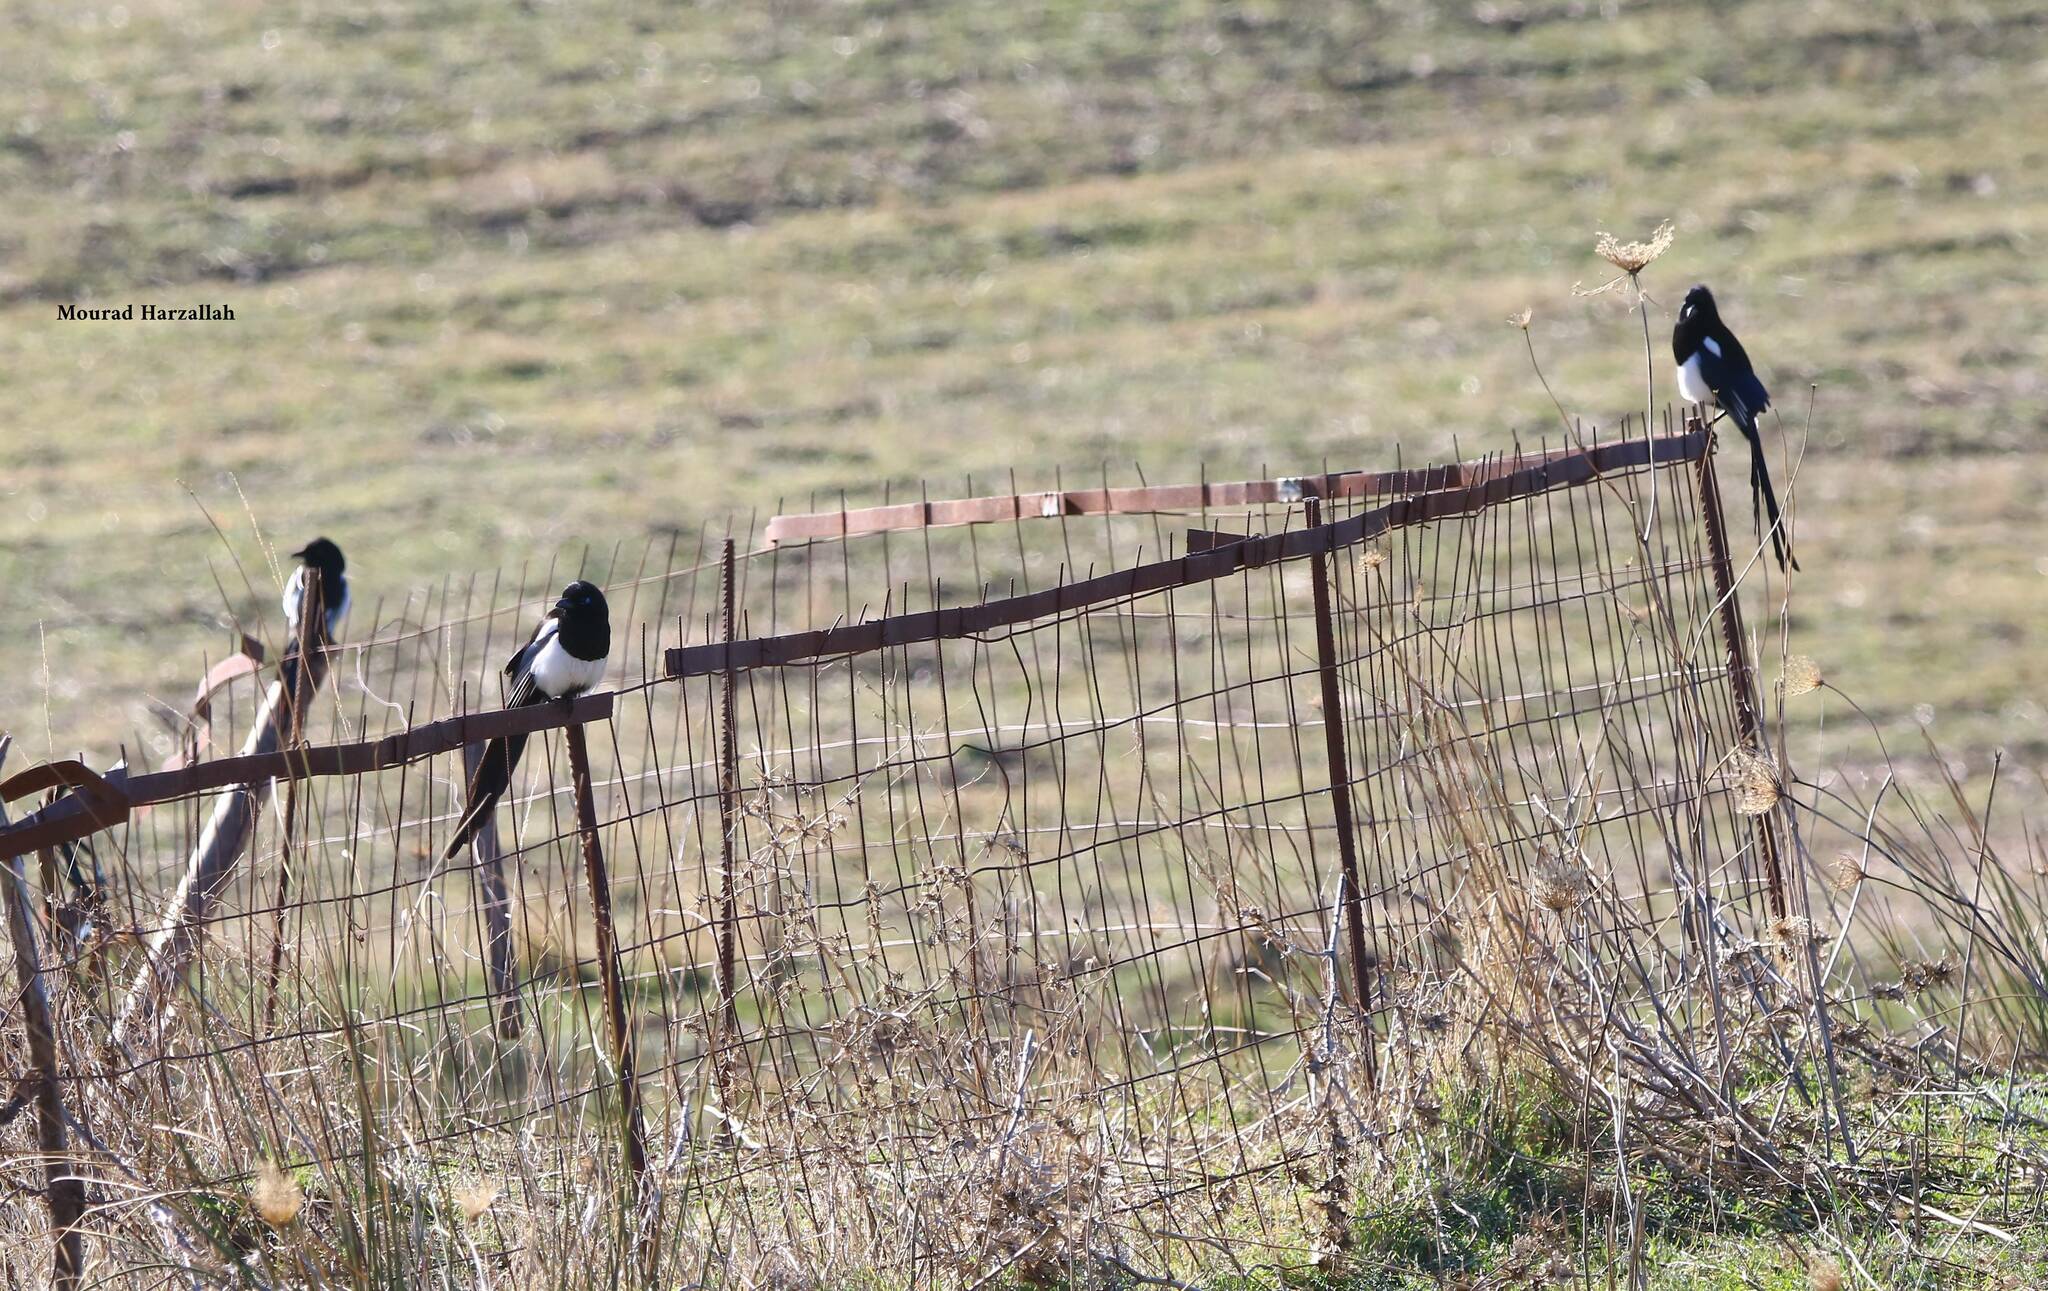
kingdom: Animalia
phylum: Chordata
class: Aves
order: Passeriformes
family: Corvidae
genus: Pica
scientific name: Pica mauritanica
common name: Maghreb magpie
